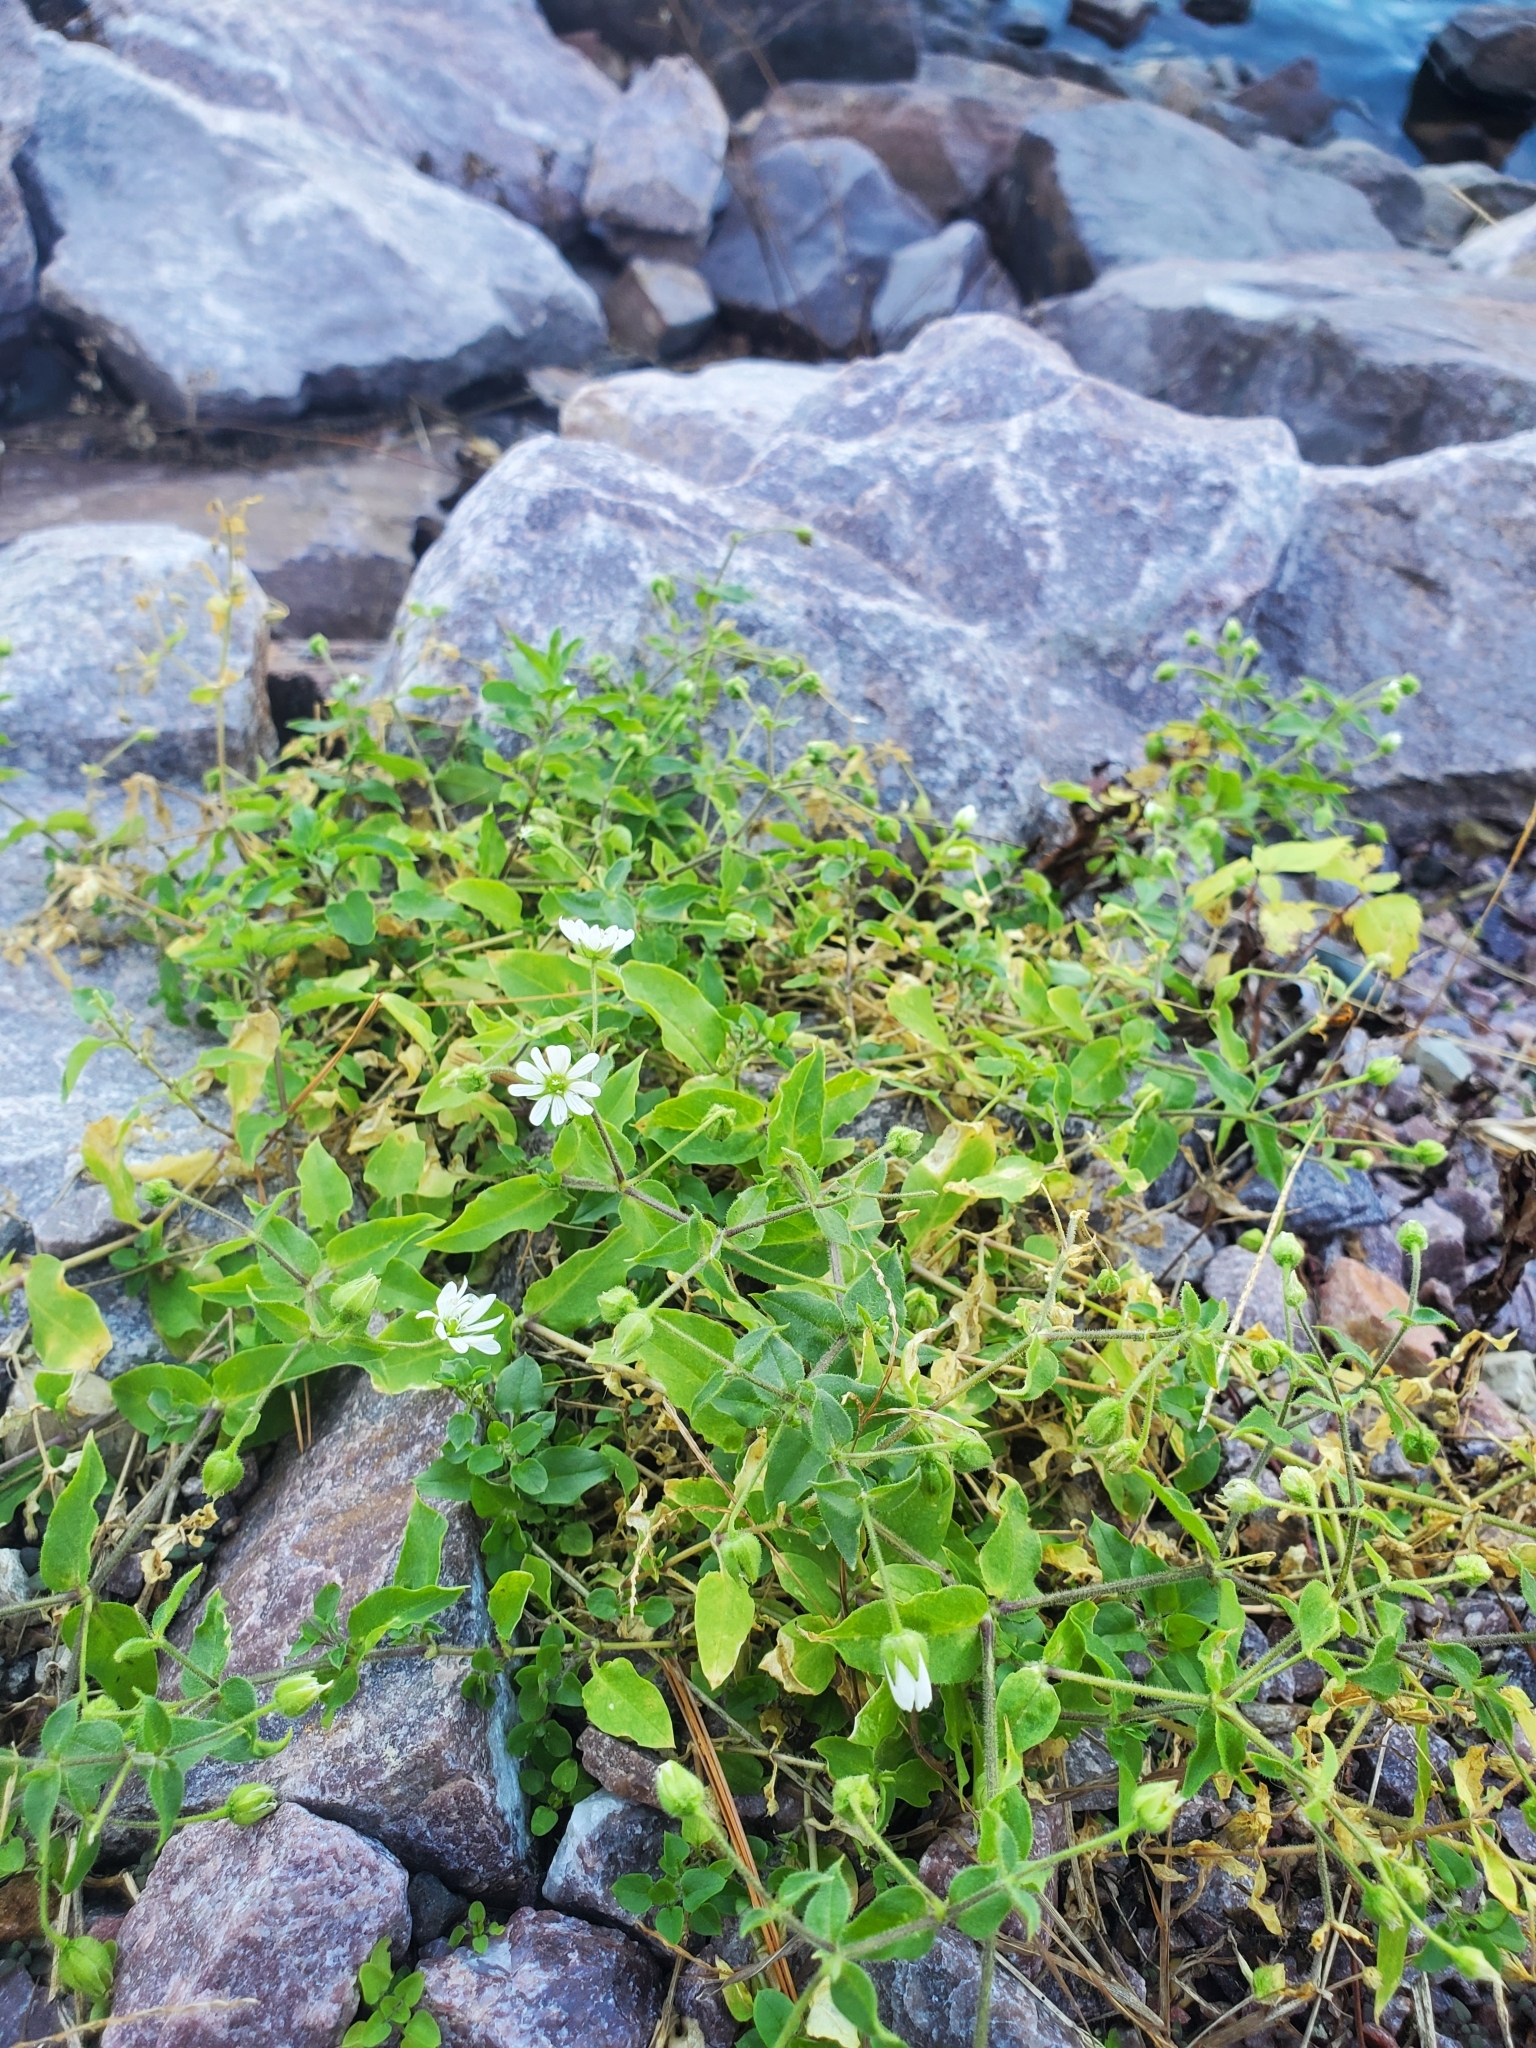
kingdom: Plantae
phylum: Tracheophyta
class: Magnoliopsida
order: Caryophyllales
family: Caryophyllaceae
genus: Stellaria
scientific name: Stellaria aquatica
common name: Water chickweed
